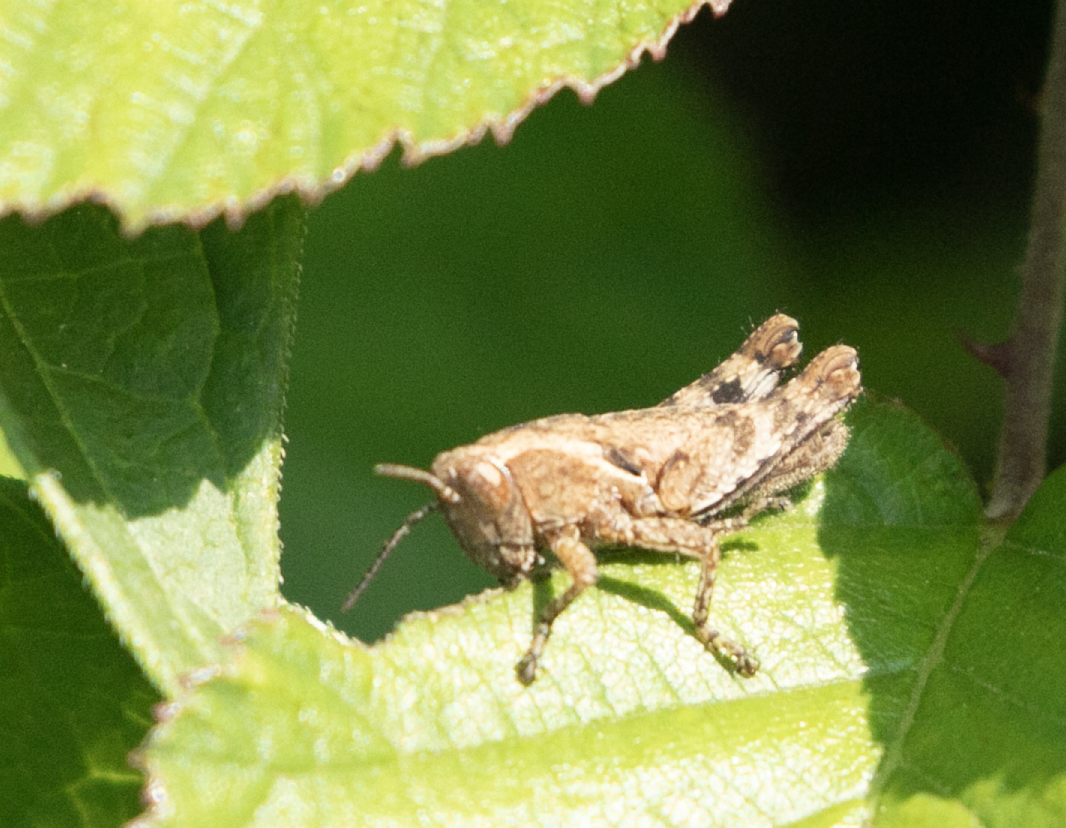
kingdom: Animalia
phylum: Arthropoda
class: Insecta
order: Orthoptera
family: Acrididae
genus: Pezotettix
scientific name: Pezotettix giornae
